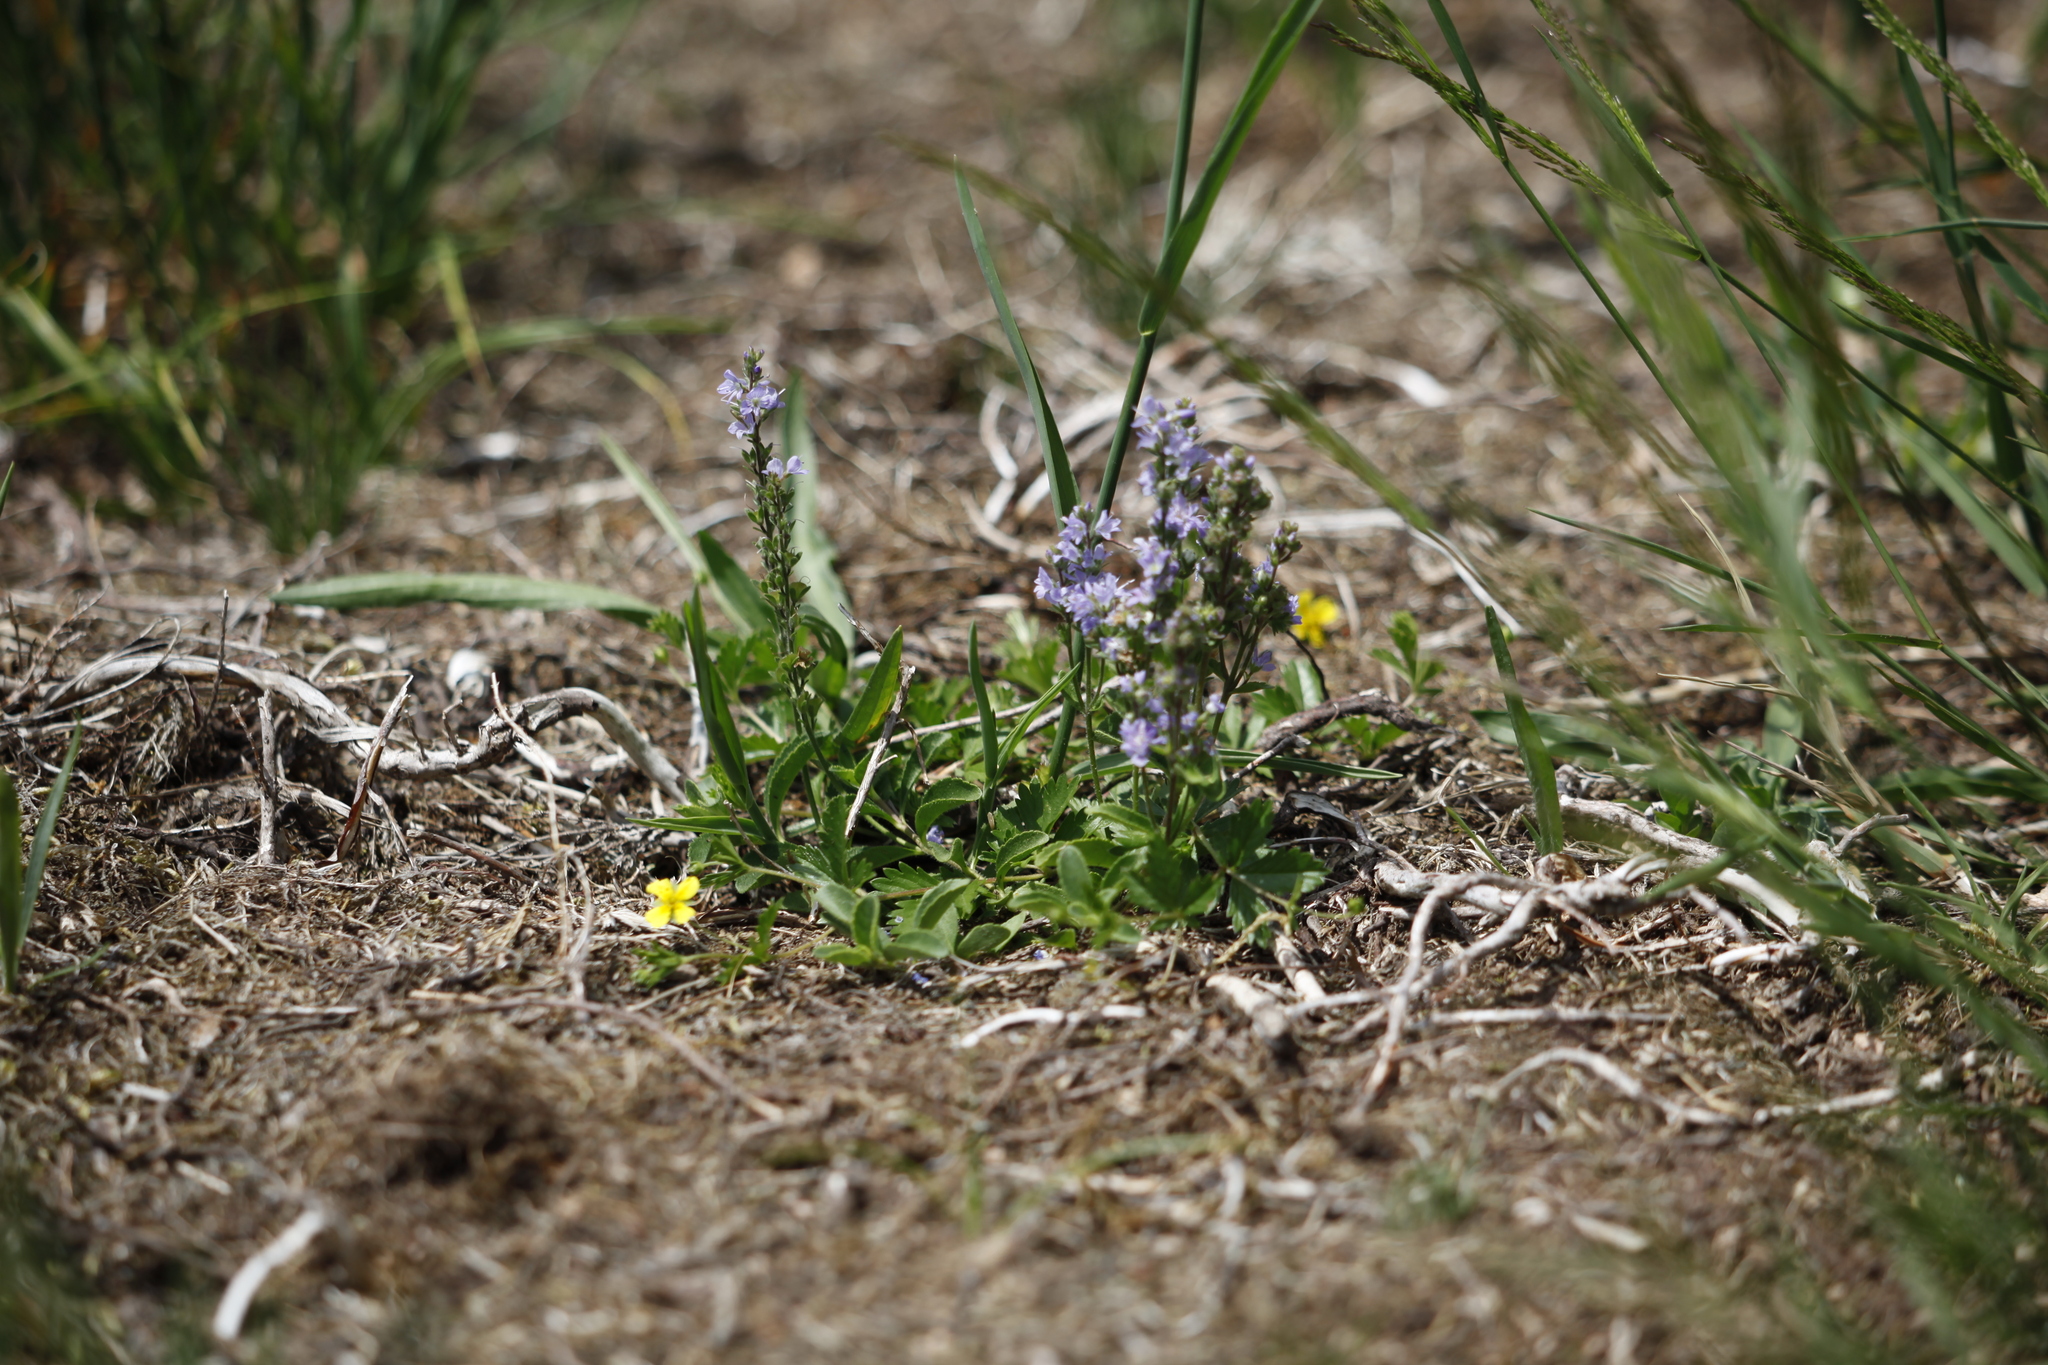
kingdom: Plantae
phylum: Tracheophyta
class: Magnoliopsida
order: Lamiales
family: Plantaginaceae
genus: Veronica
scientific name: Veronica officinalis
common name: Common speedwell
